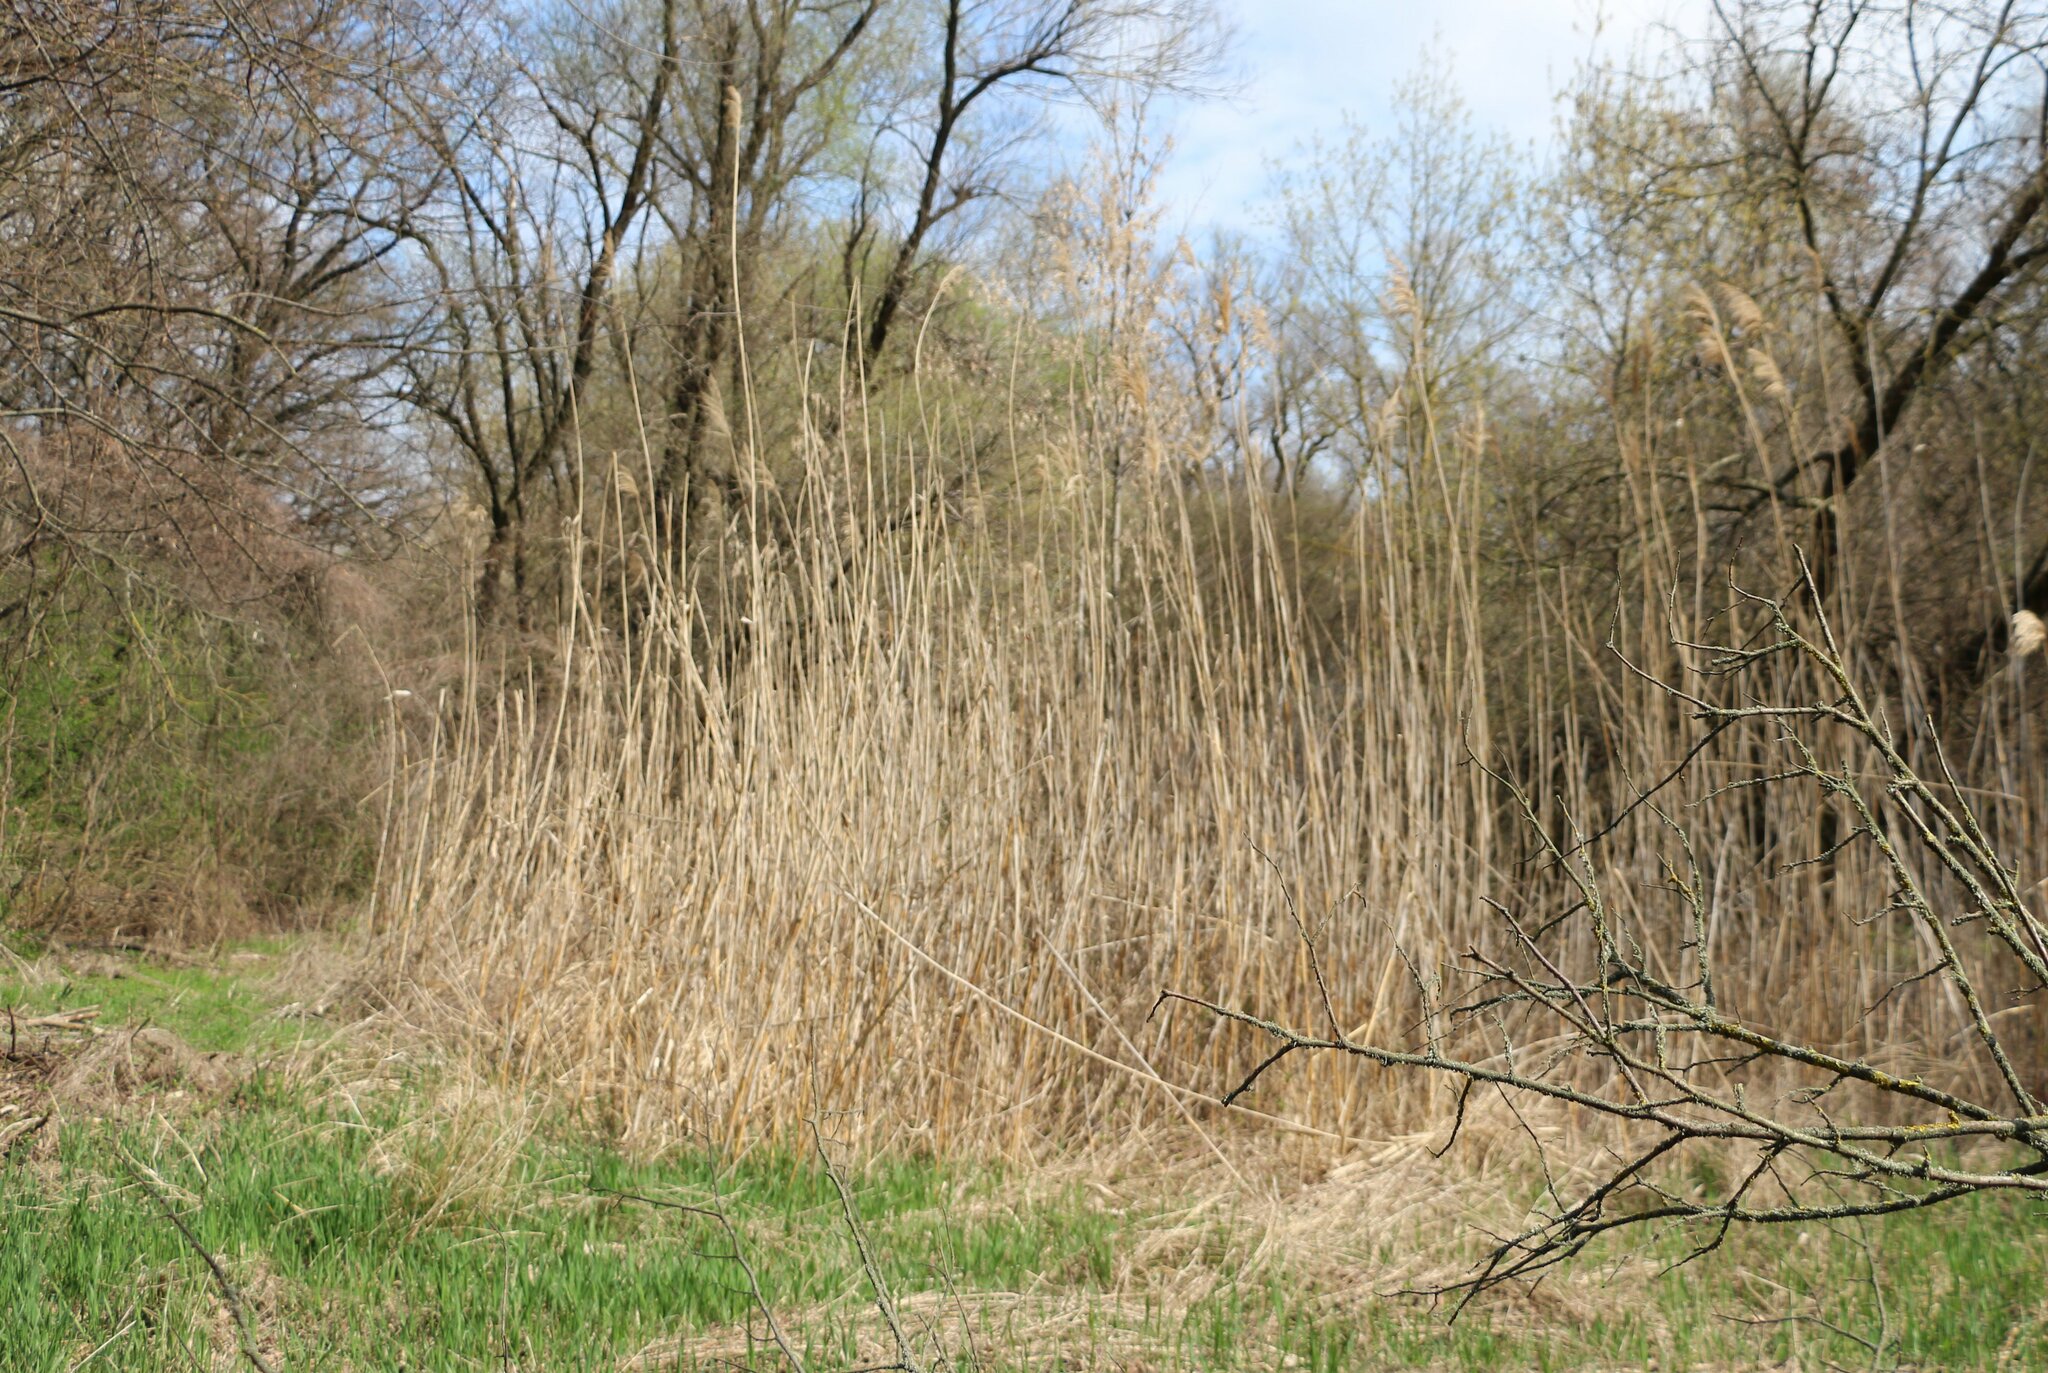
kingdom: Plantae
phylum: Tracheophyta
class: Liliopsida
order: Poales
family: Poaceae
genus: Phragmites
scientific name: Phragmites australis
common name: Common reed
